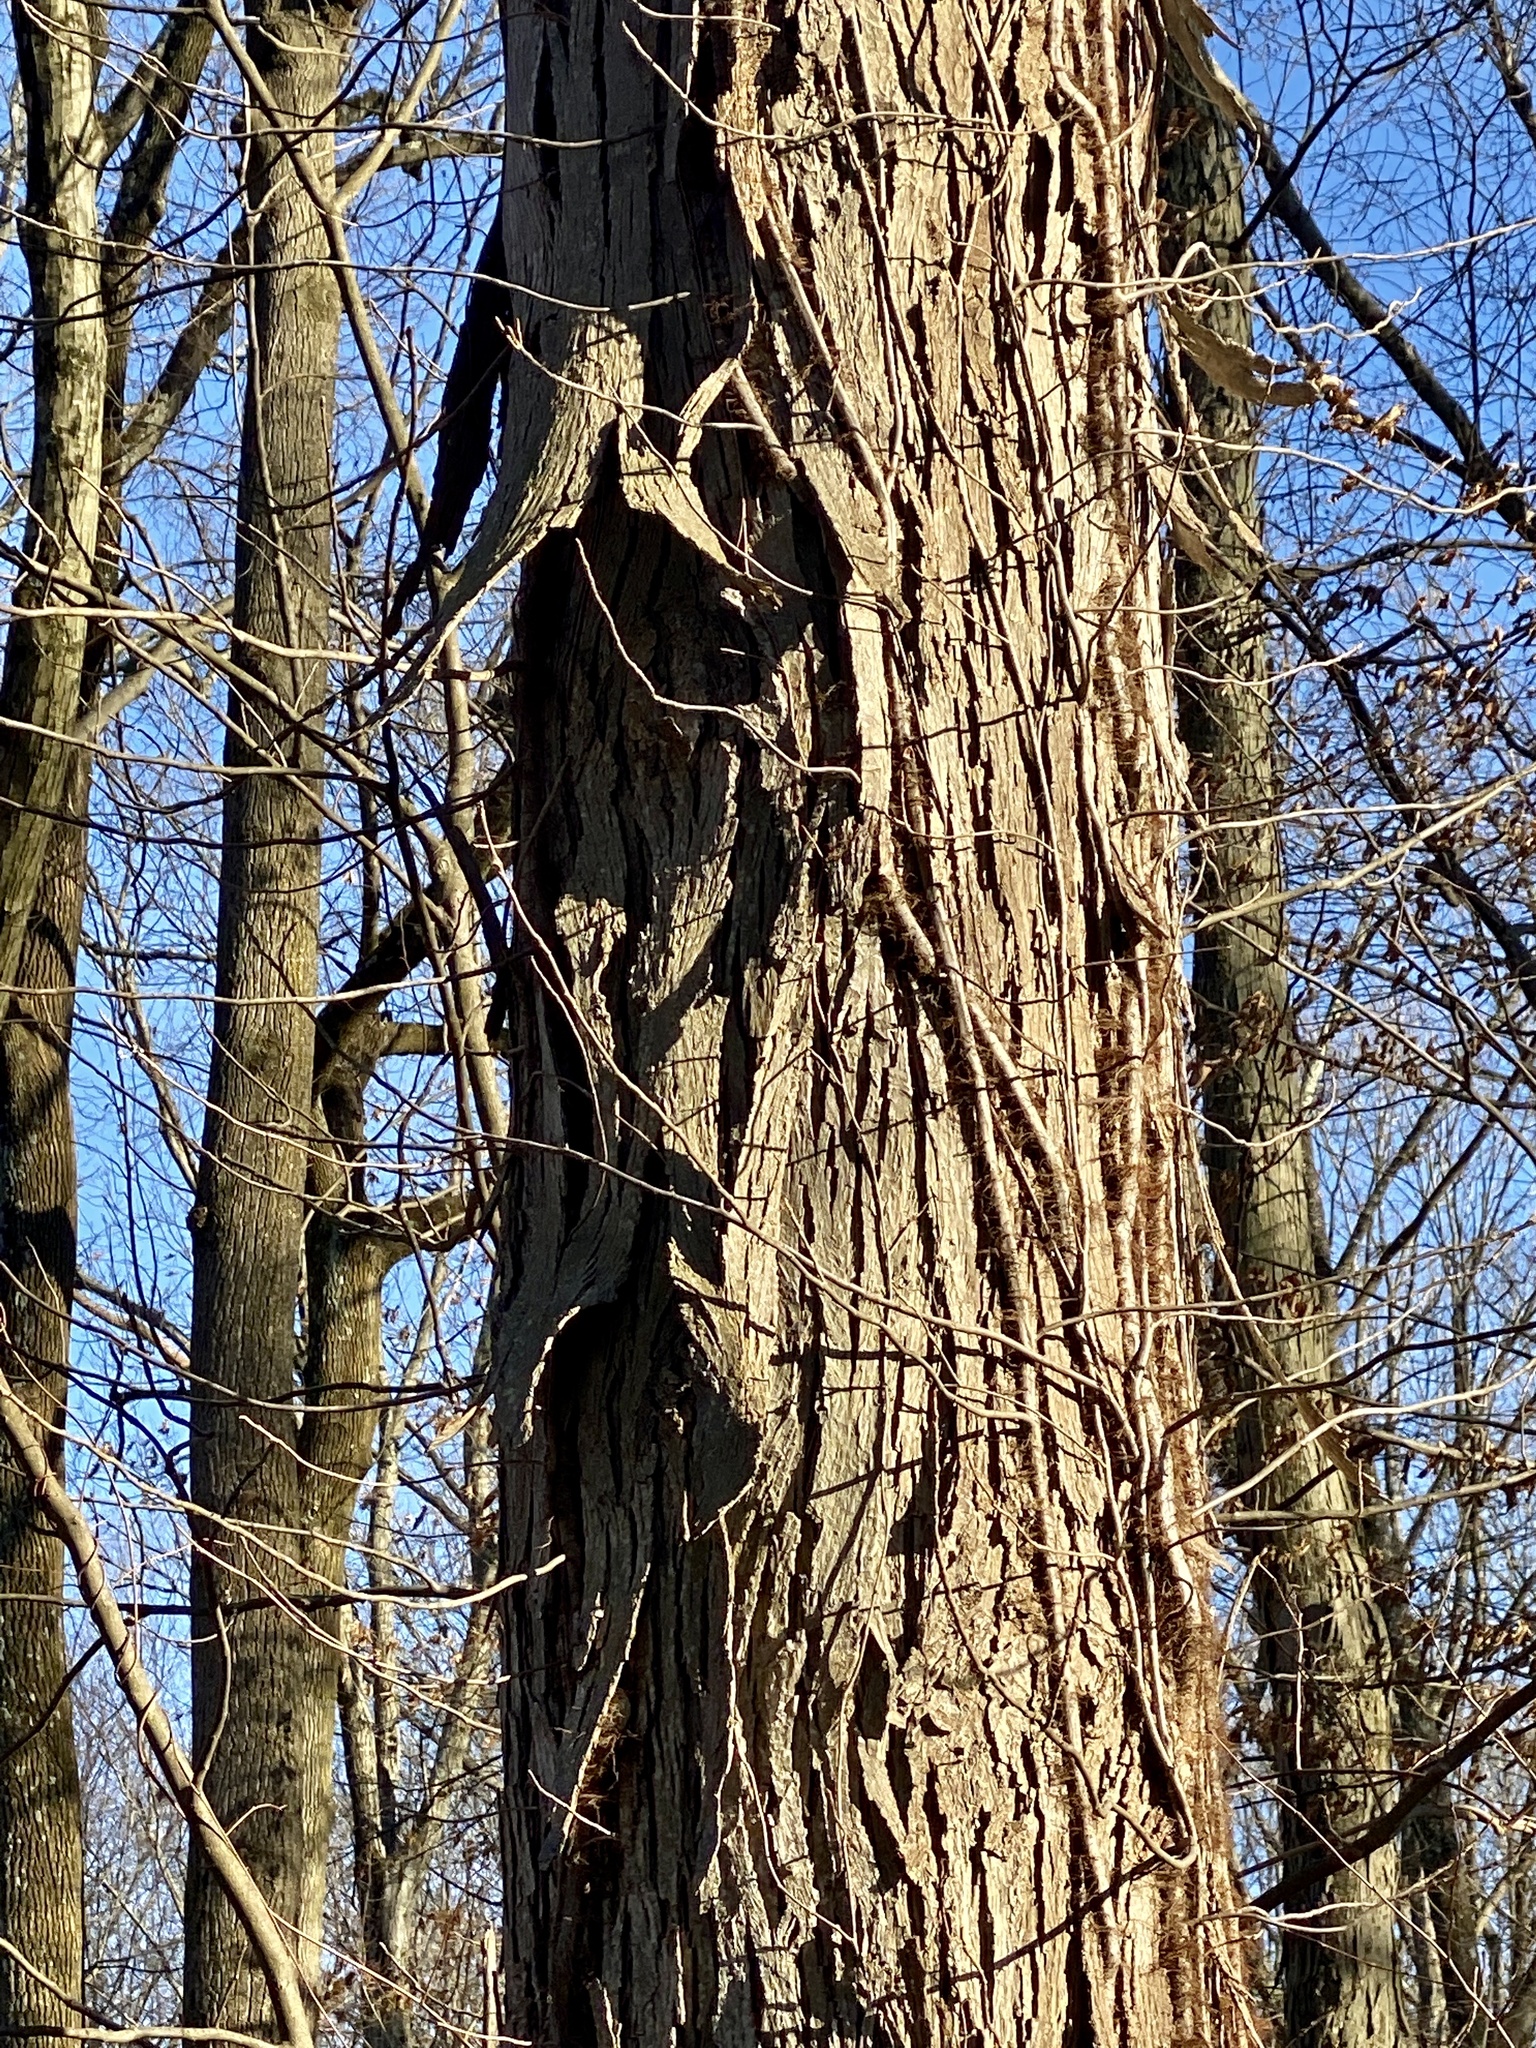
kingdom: Plantae
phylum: Tracheophyta
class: Magnoliopsida
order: Fagales
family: Juglandaceae
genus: Carya
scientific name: Carya ovata
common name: Shagbark hickory
